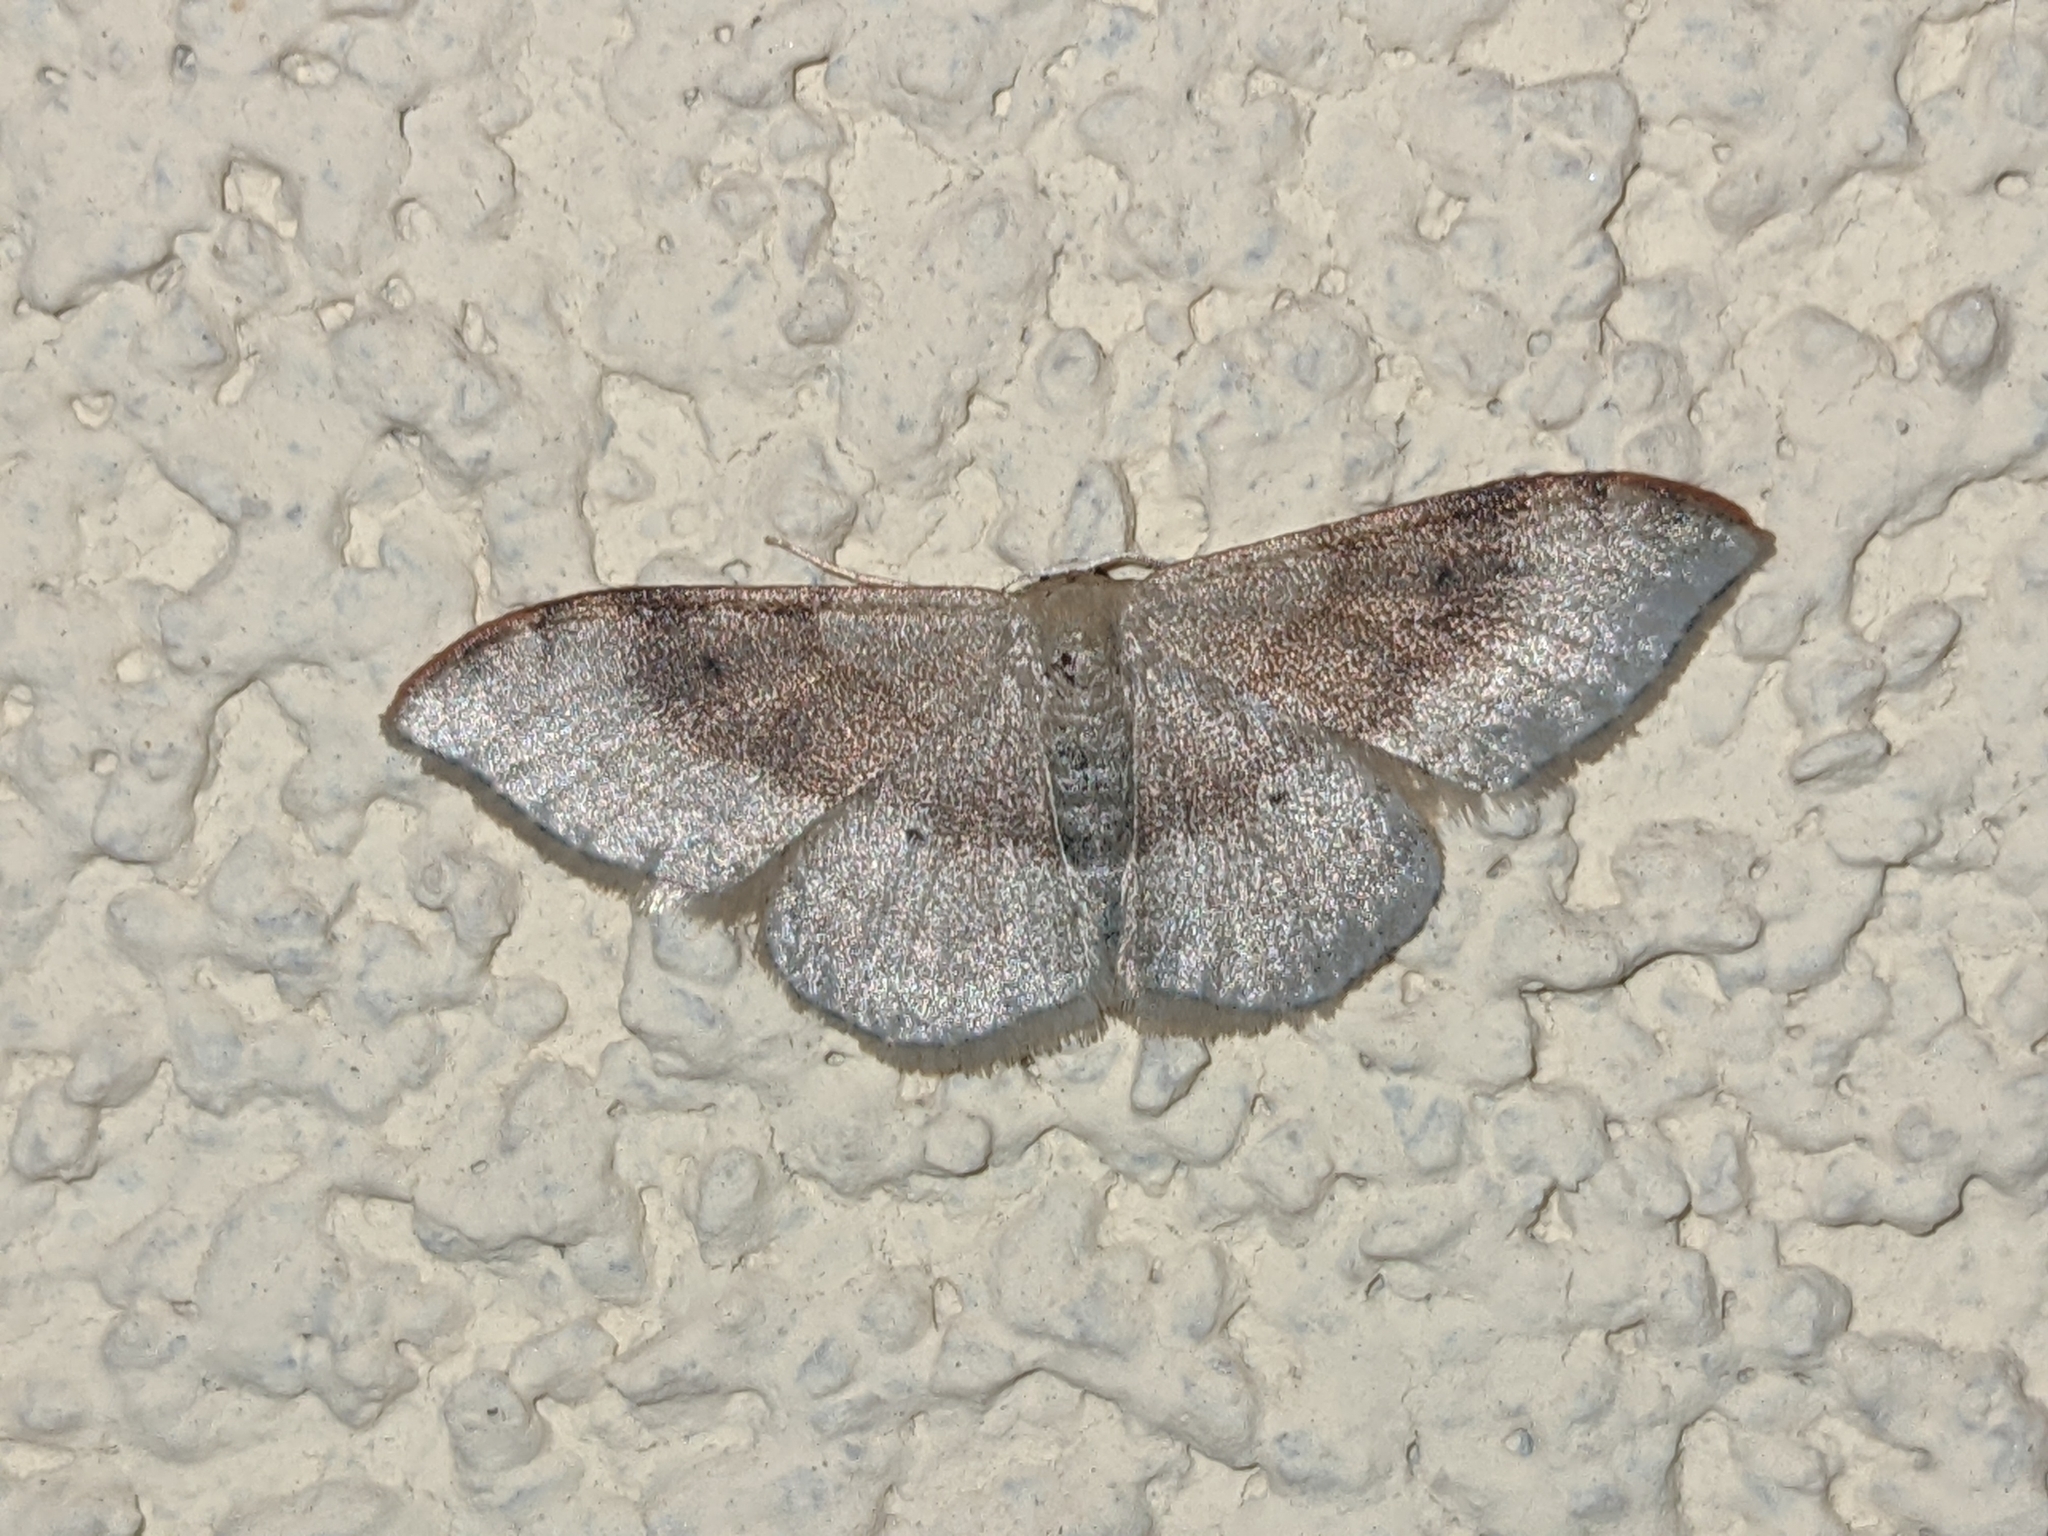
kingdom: Animalia
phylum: Arthropoda
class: Insecta
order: Lepidoptera
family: Geometridae
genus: Idaea
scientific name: Idaea degeneraria
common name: Portland ribbon wave
